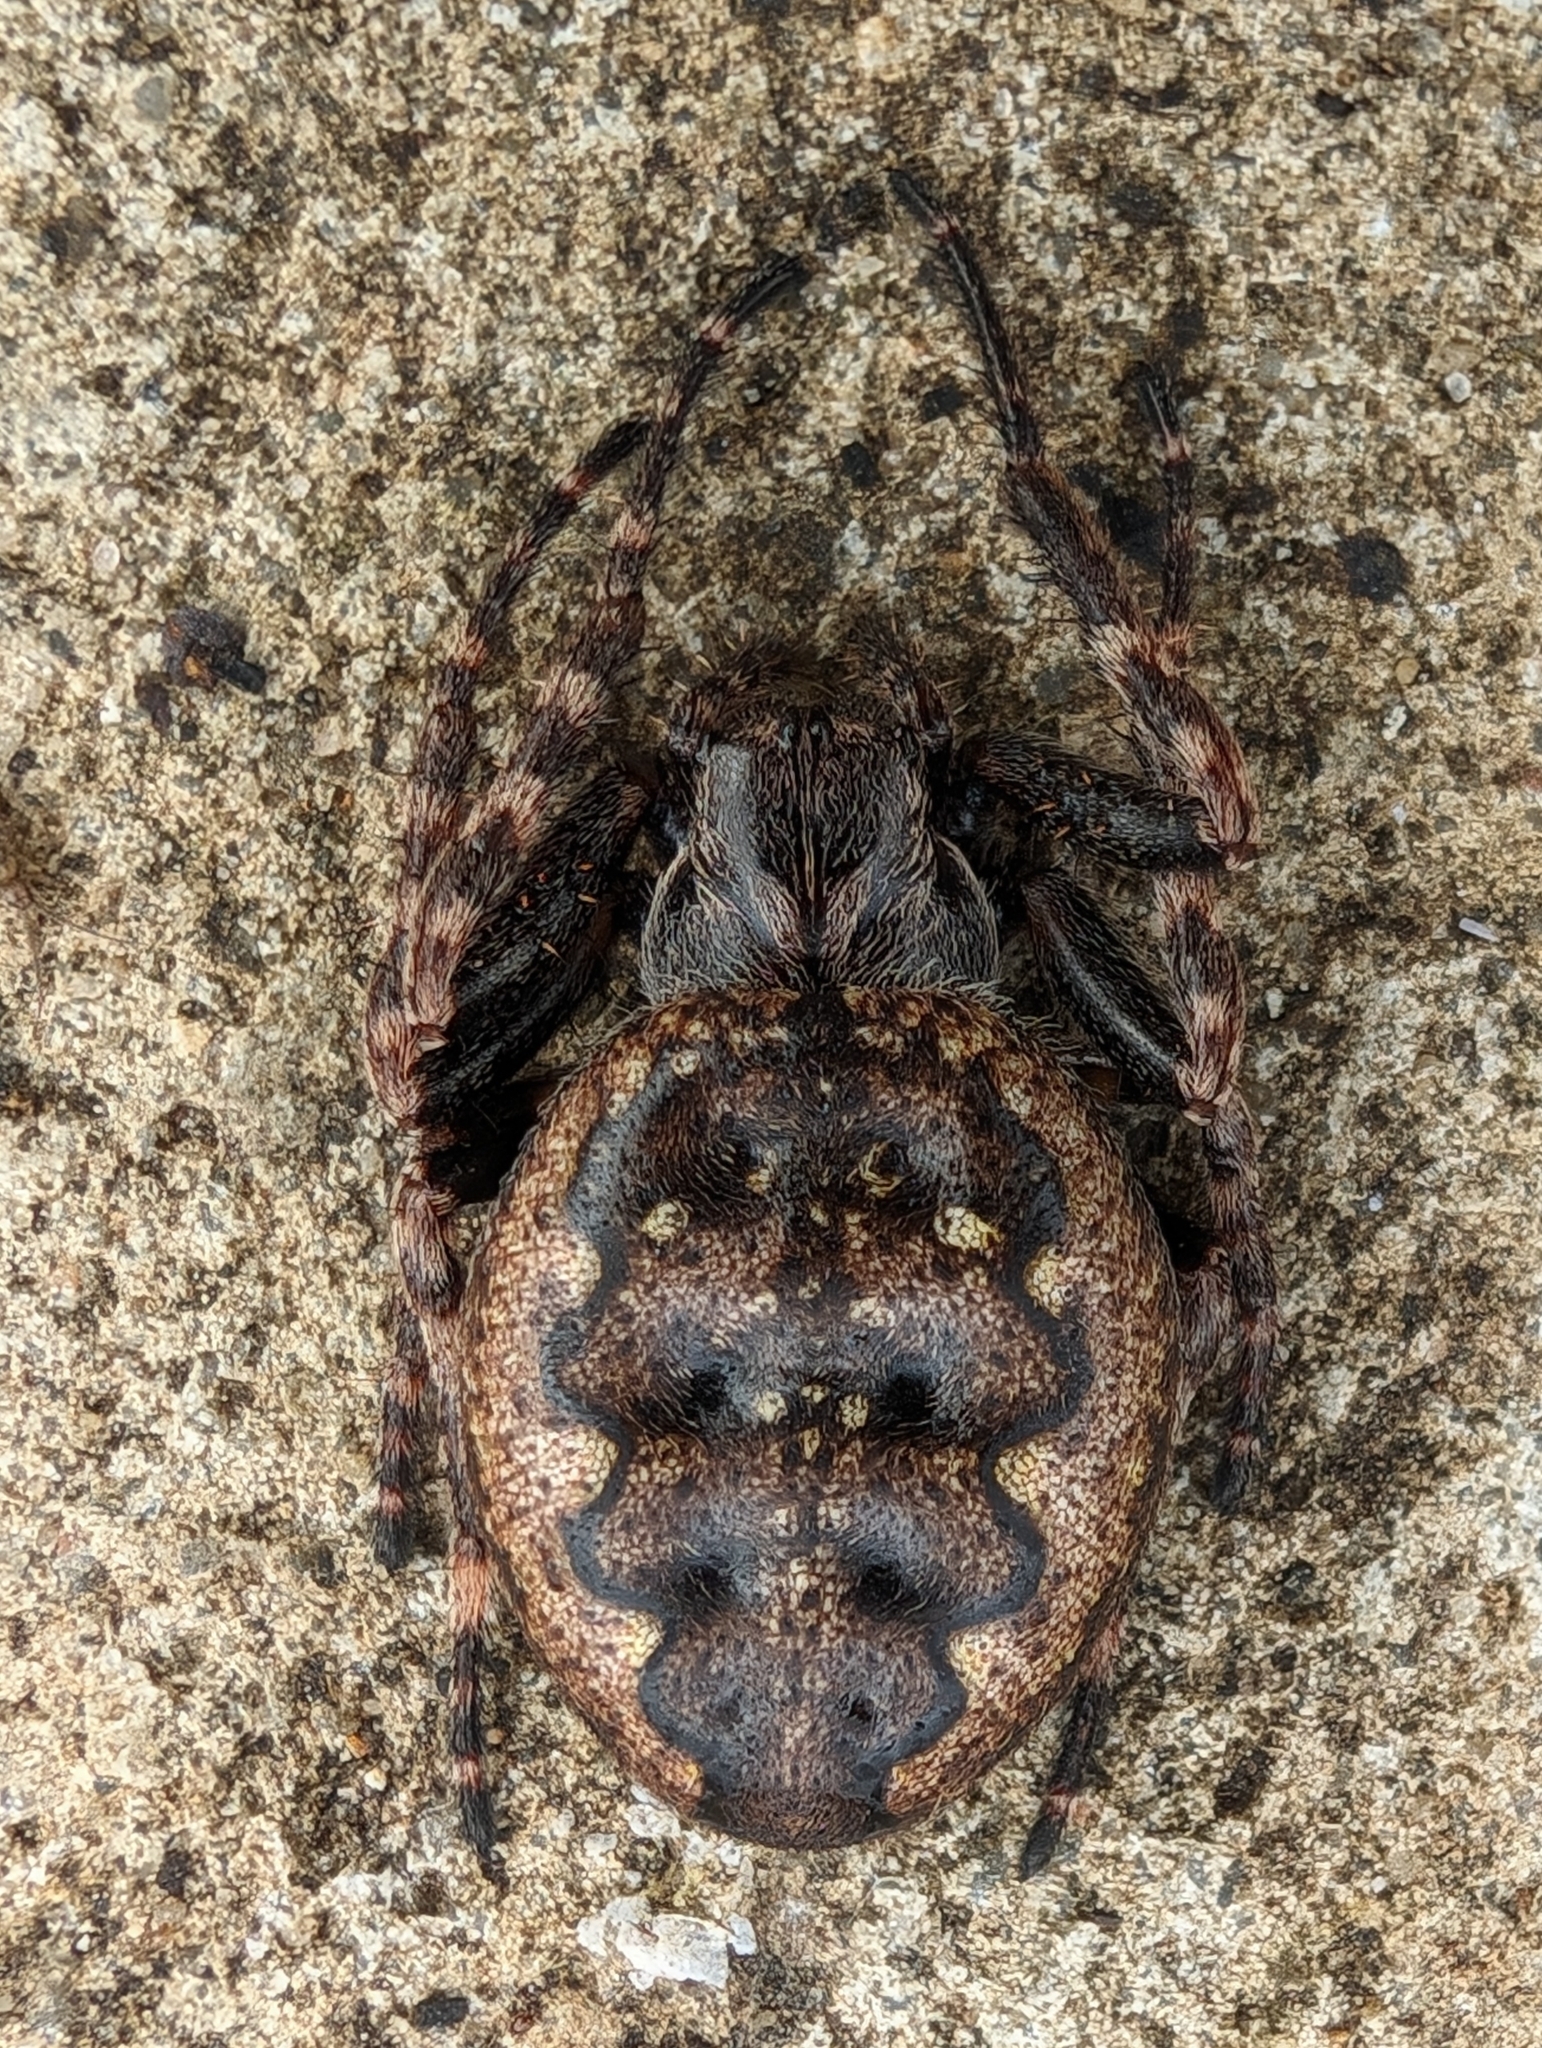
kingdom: Animalia
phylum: Arthropoda
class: Arachnida
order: Araneae
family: Araneidae
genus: Nuctenea
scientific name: Nuctenea umbratica
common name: Toad spider
